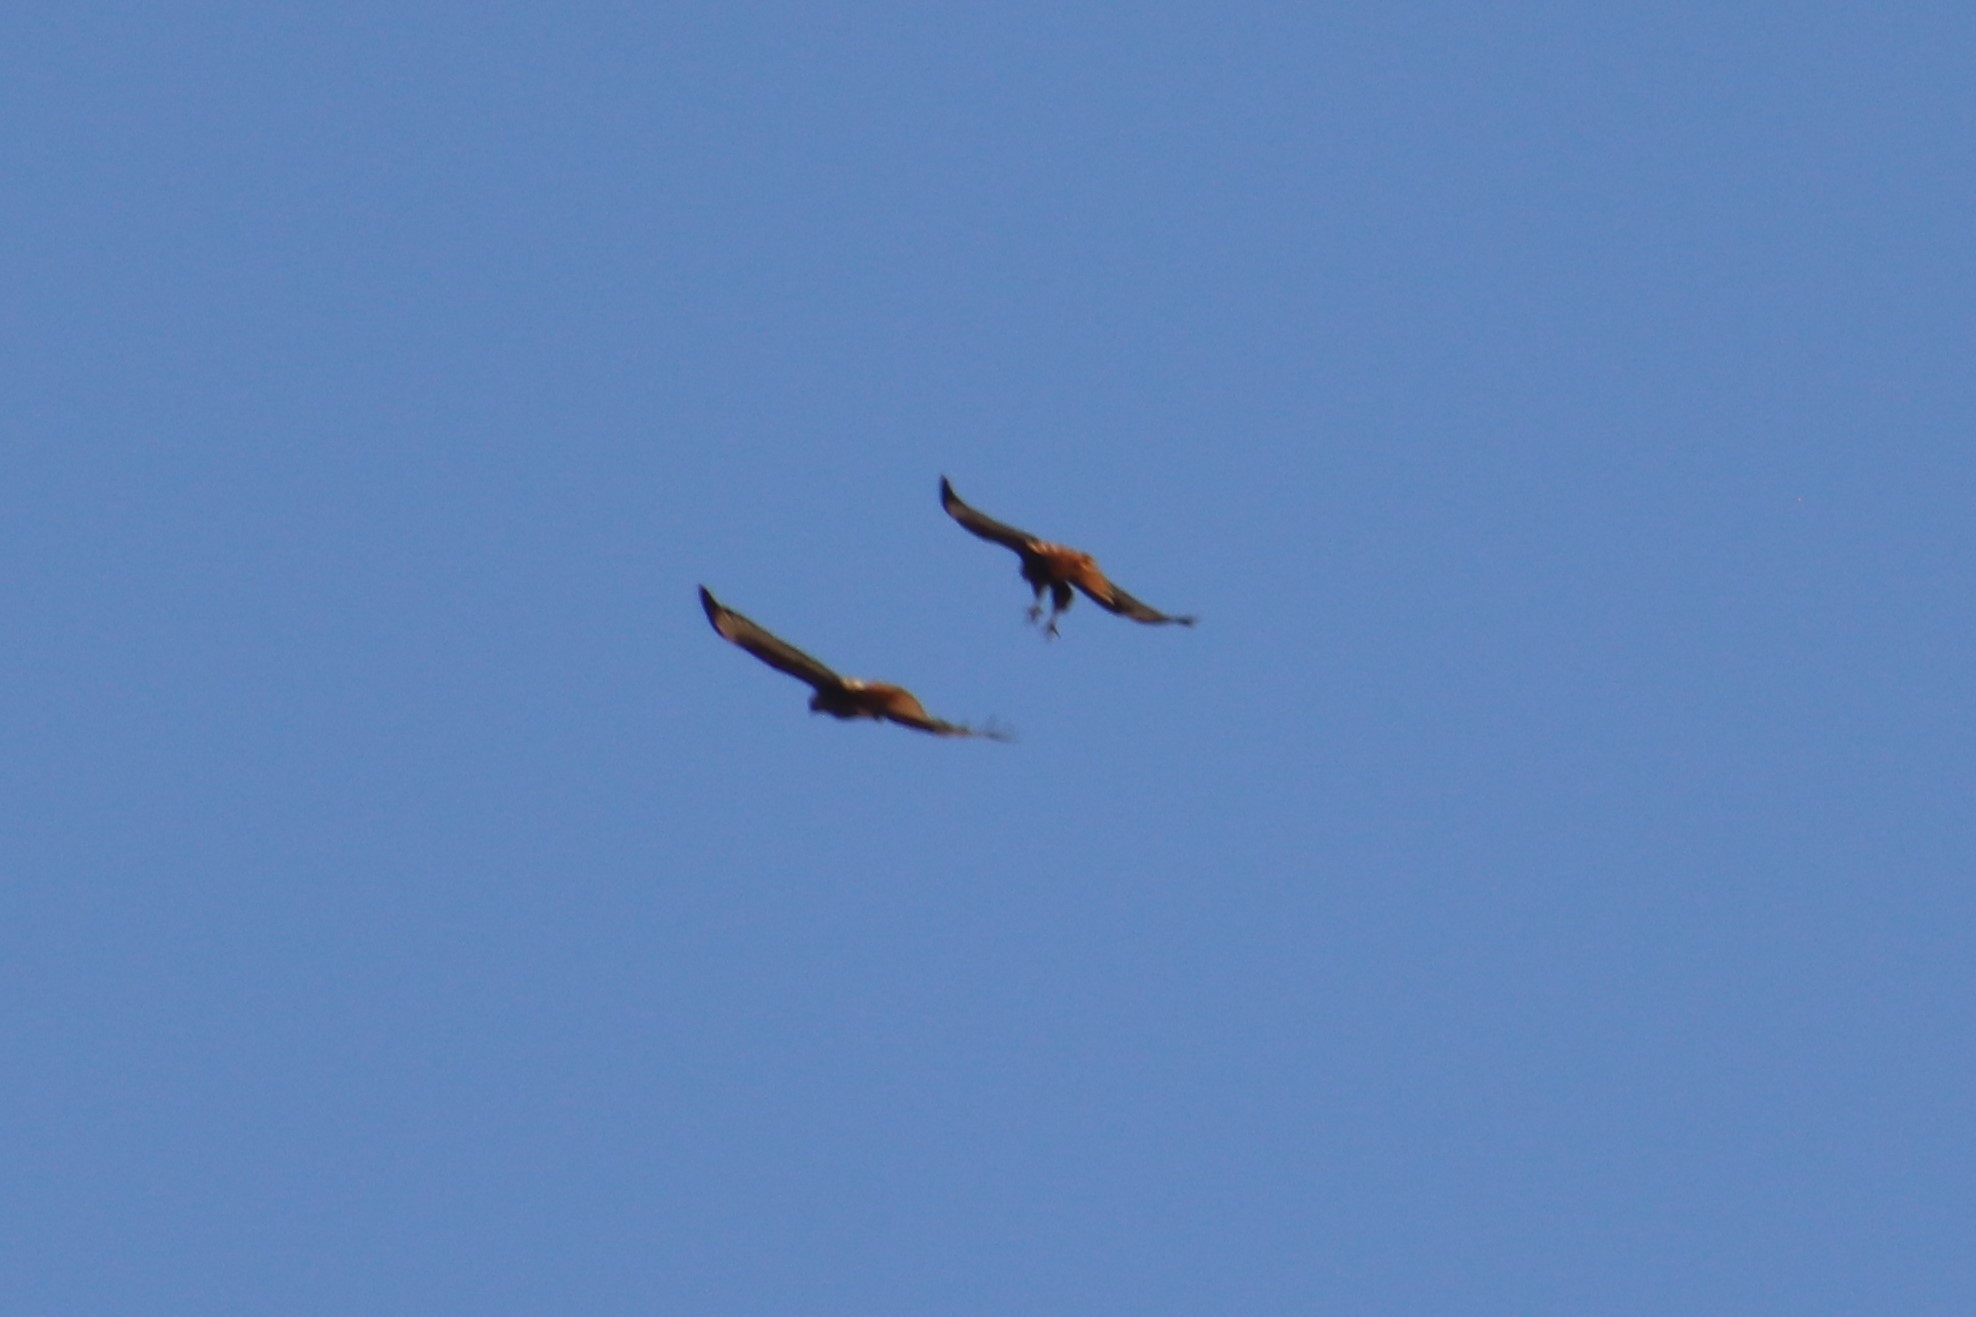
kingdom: Animalia
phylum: Chordata
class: Aves
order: Accipitriformes
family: Accipitridae
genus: Buteo
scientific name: Buteo jamaicensis
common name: Red-tailed hawk
